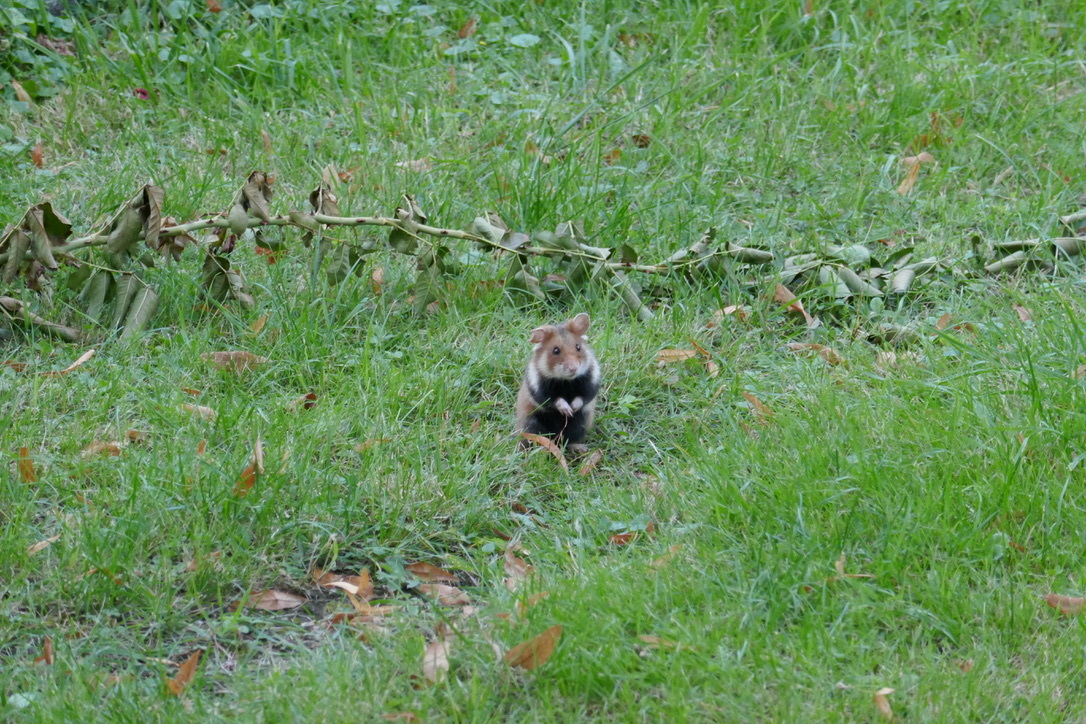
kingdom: Animalia
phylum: Chordata
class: Mammalia
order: Rodentia
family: Cricetidae
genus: Cricetus
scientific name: Cricetus cricetus
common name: Common hamster
